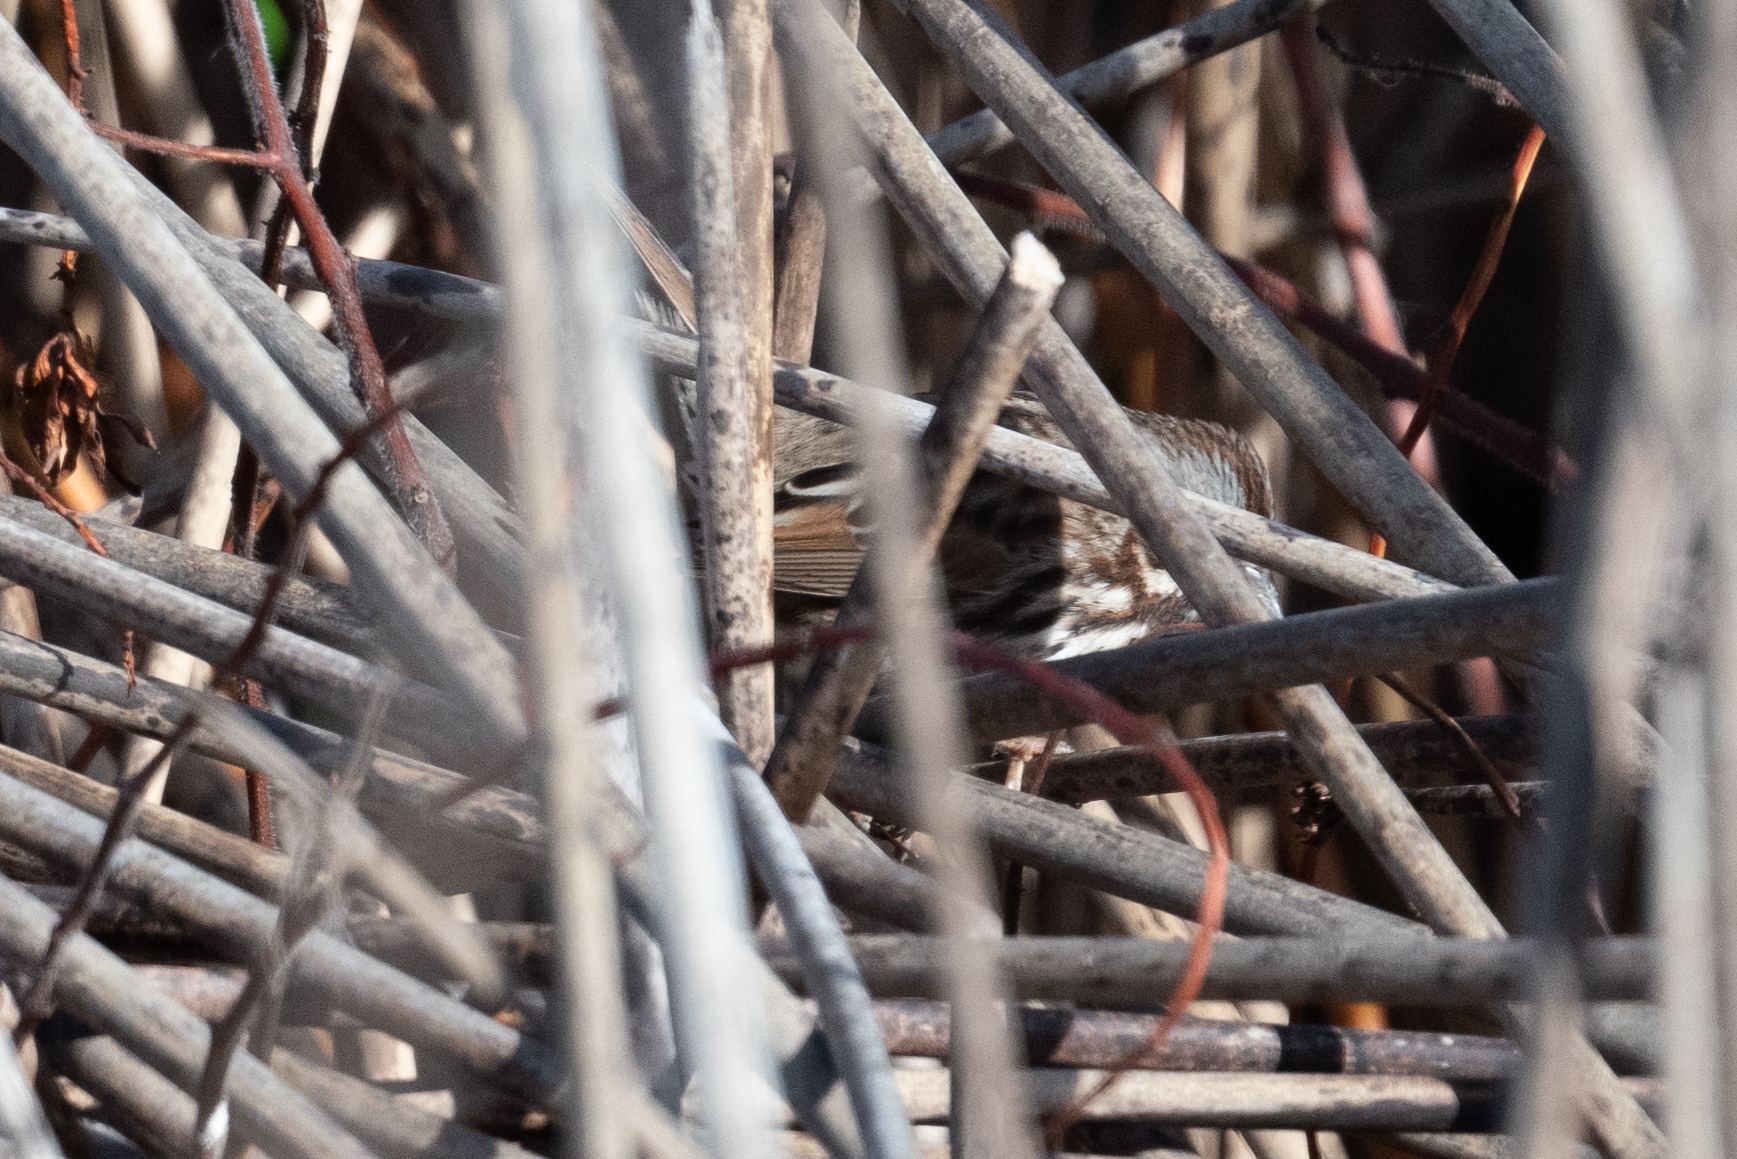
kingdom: Animalia
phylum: Chordata
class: Aves
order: Passeriformes
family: Passerellidae
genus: Passerella
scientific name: Passerella iliaca
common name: Fox sparrow
